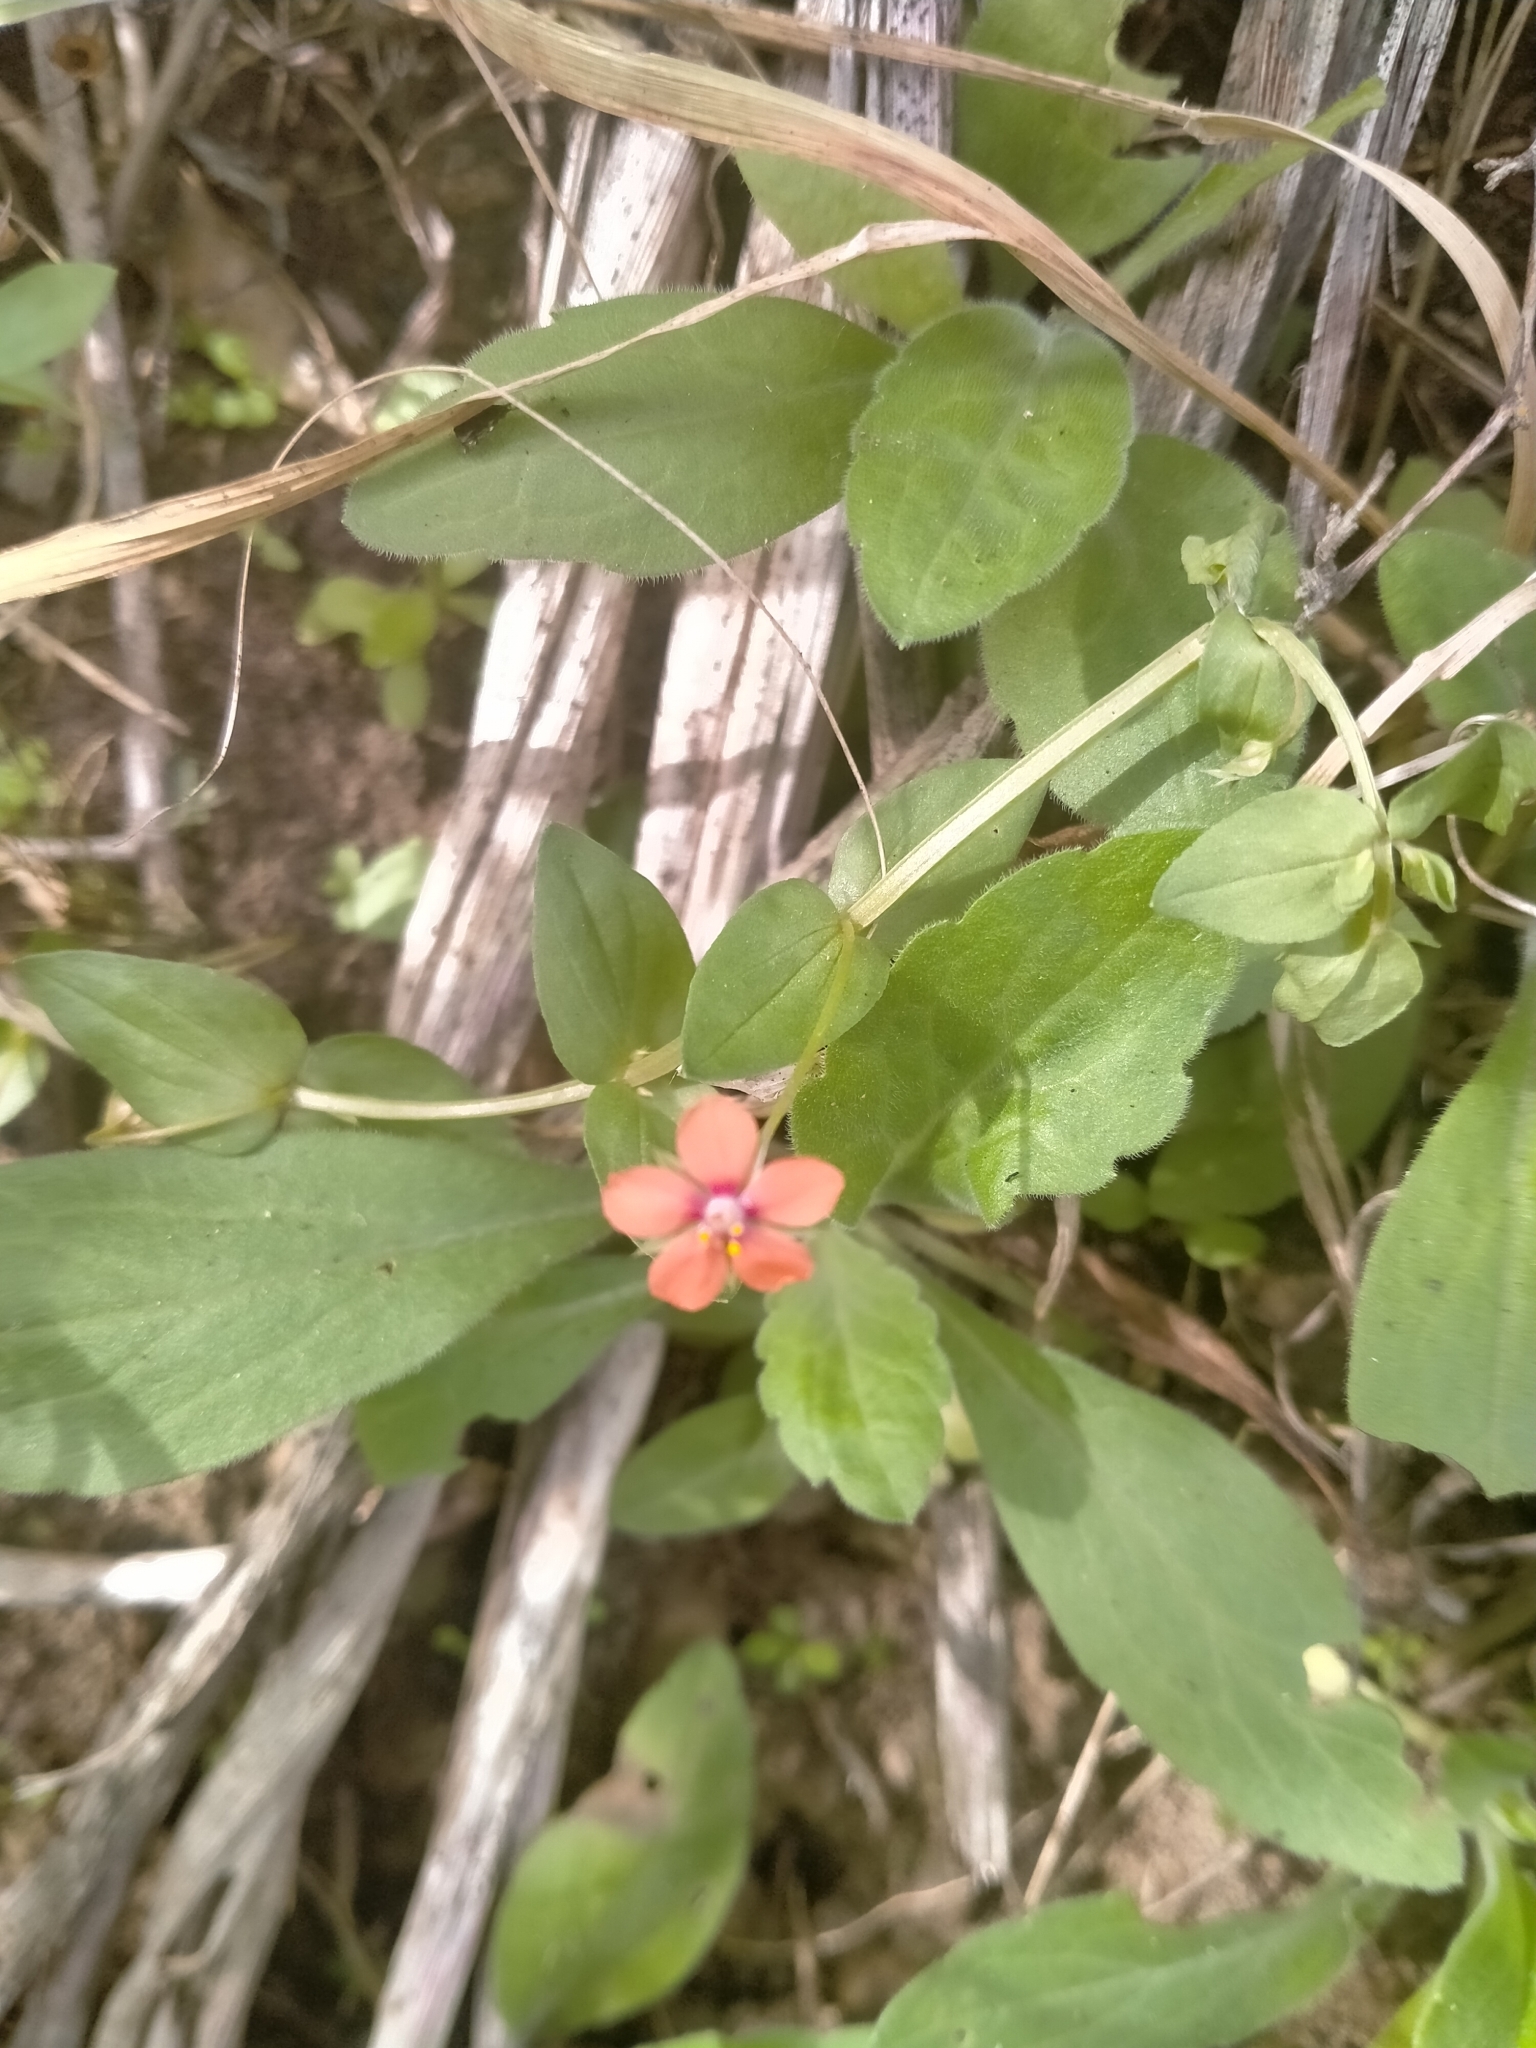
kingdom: Plantae
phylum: Tracheophyta
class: Magnoliopsida
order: Ericales
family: Primulaceae
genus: Lysimachia
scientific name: Lysimachia arvensis
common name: Scarlet pimpernel
